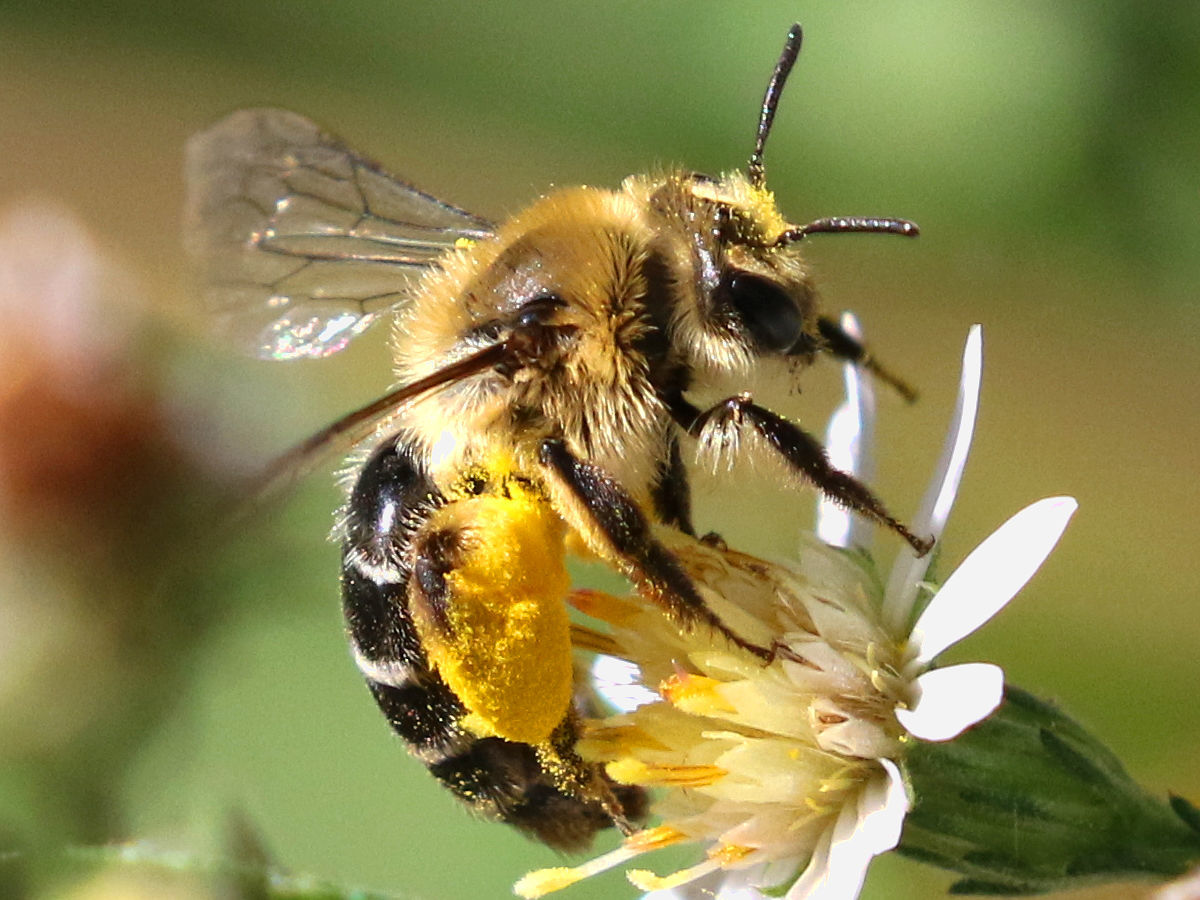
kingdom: Animalia
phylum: Arthropoda
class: Insecta
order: Hymenoptera
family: Andrenidae
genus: Andrena
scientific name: Andrena asteris
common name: Aster mining bee
